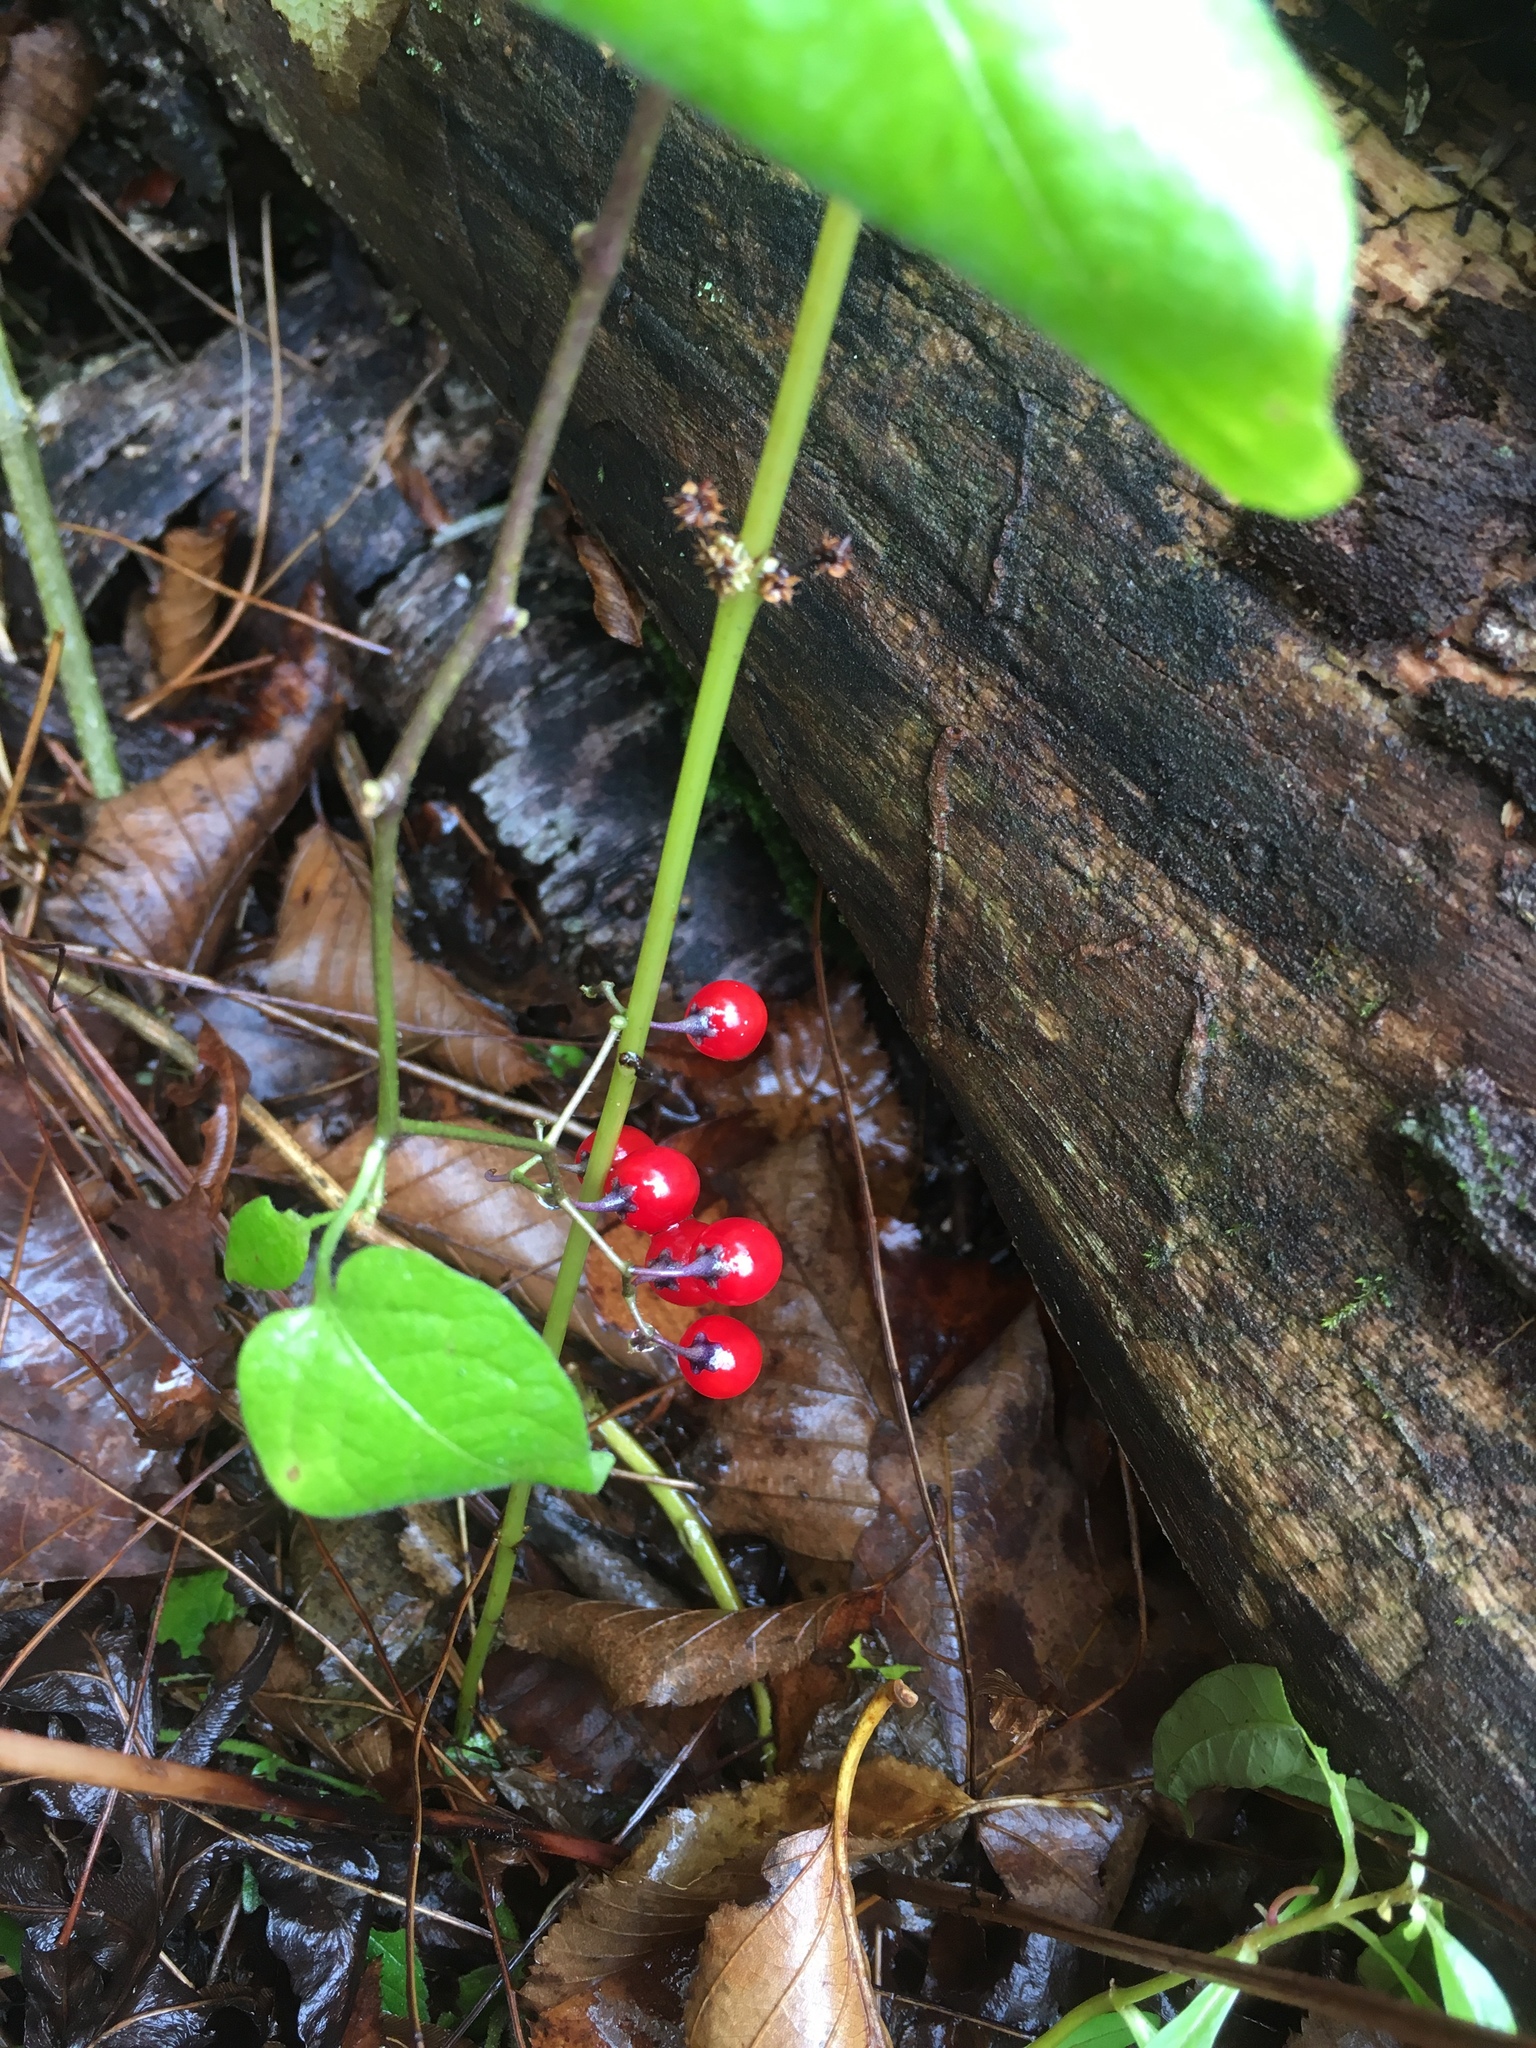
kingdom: Plantae
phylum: Tracheophyta
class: Magnoliopsida
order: Solanales
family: Solanaceae
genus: Solanum
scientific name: Solanum dulcamara
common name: Climbing nightshade
